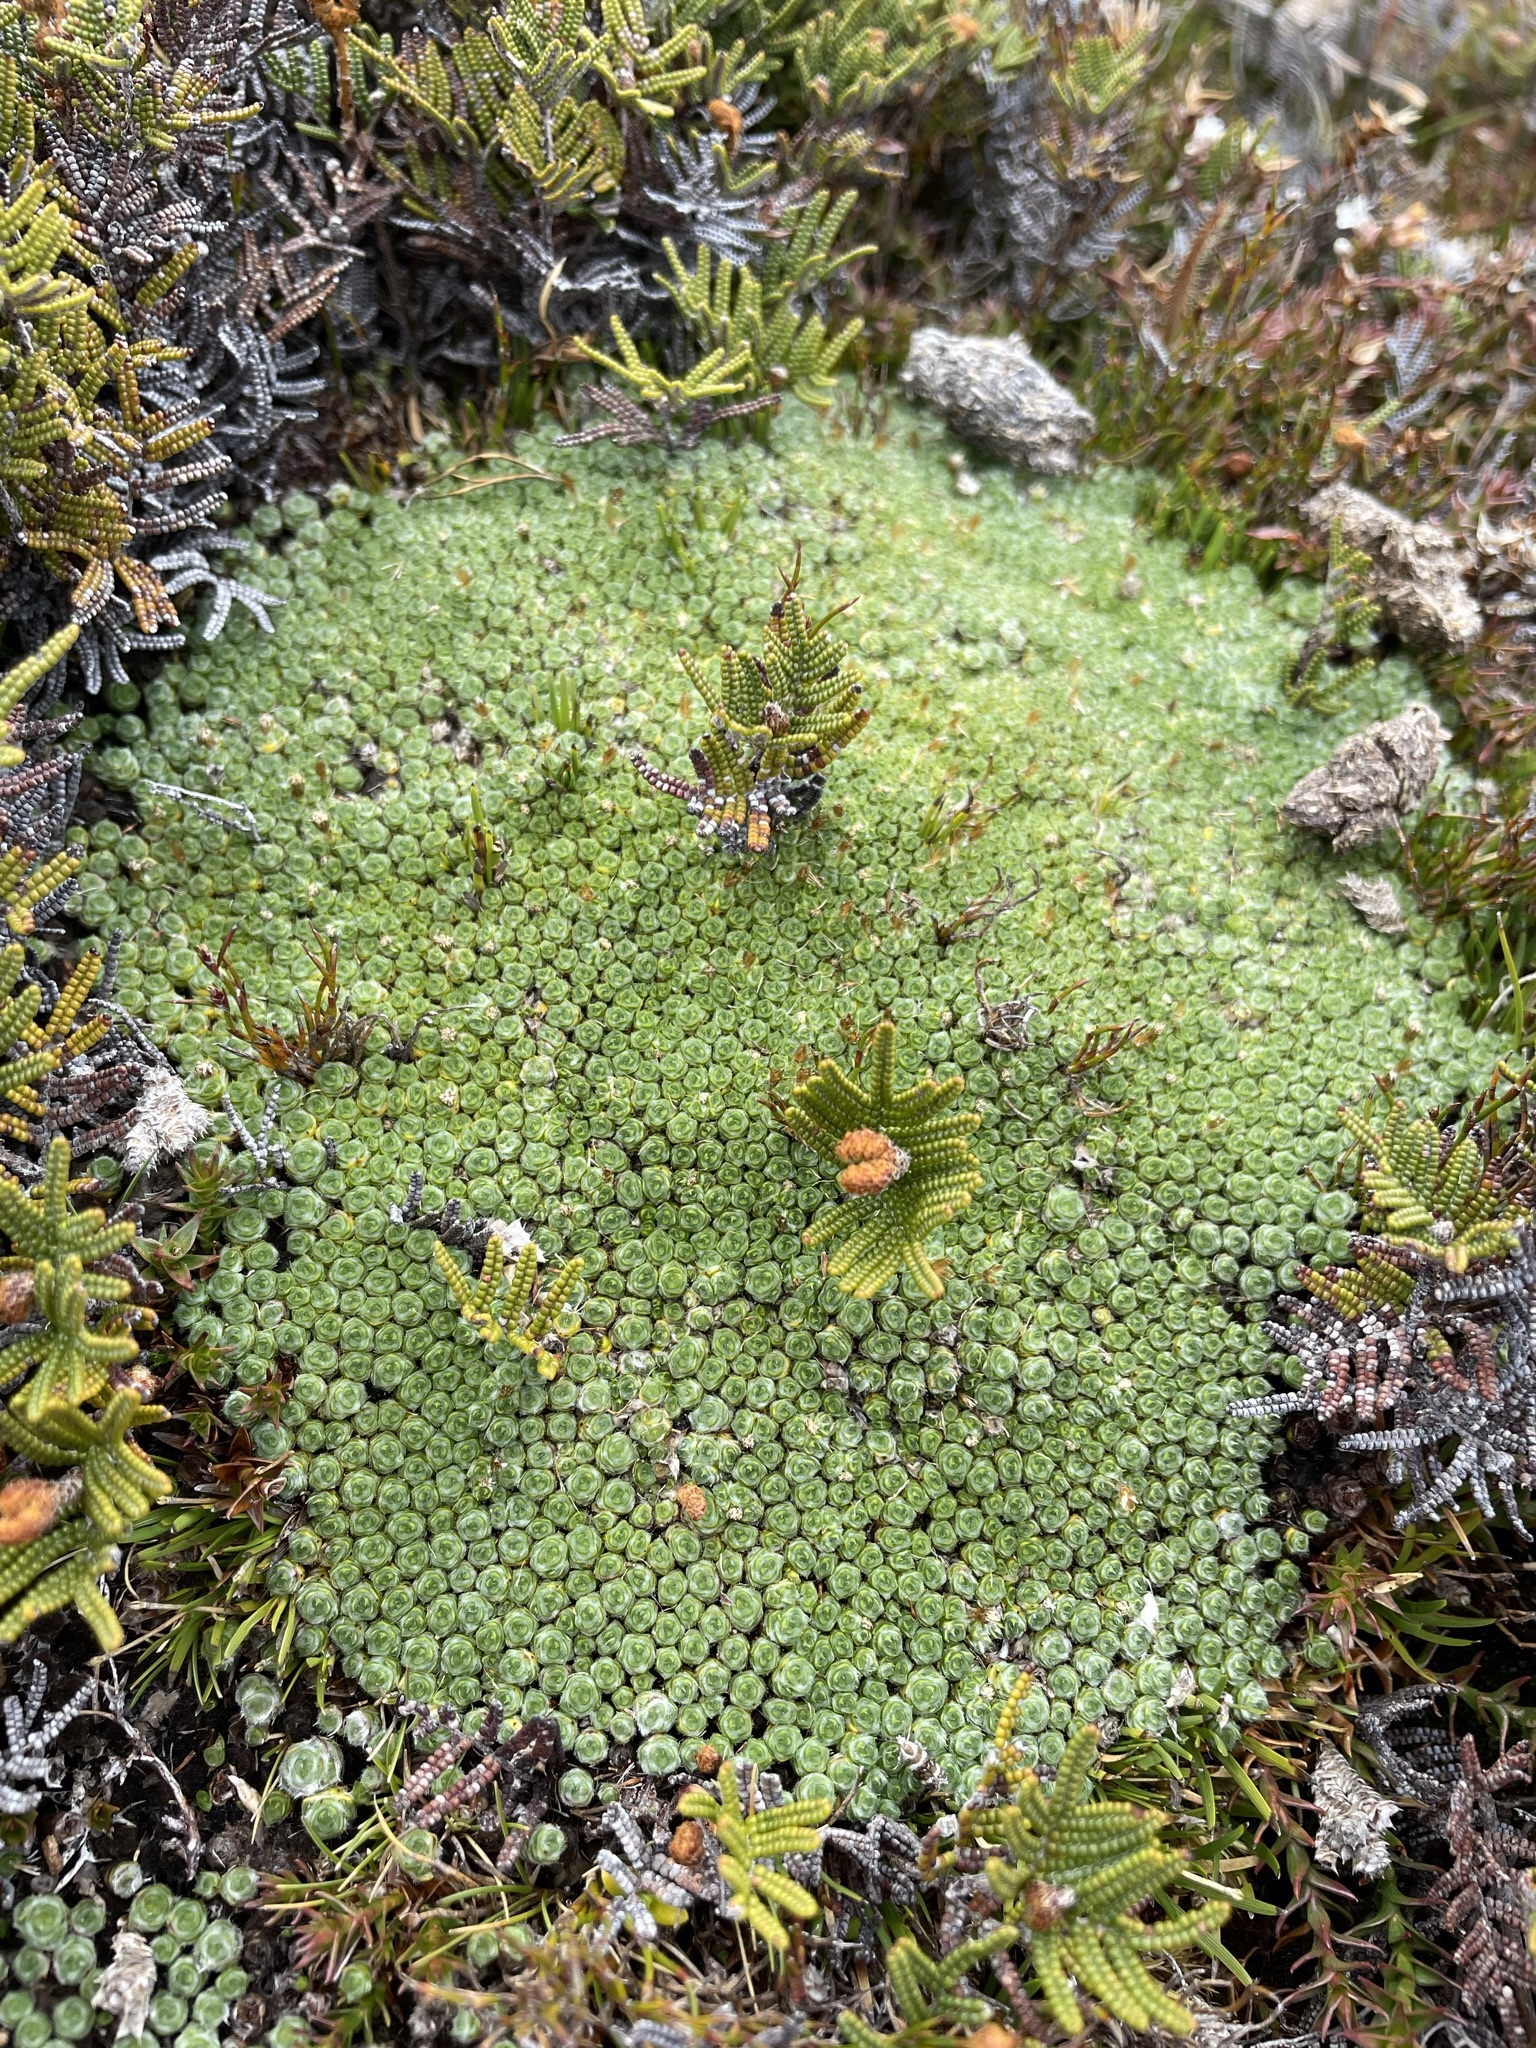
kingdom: Plantae
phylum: Tracheophyta
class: Magnoliopsida
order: Asterales
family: Asteraceae
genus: Pterygopappus
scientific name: Pterygopappus lawrencii
